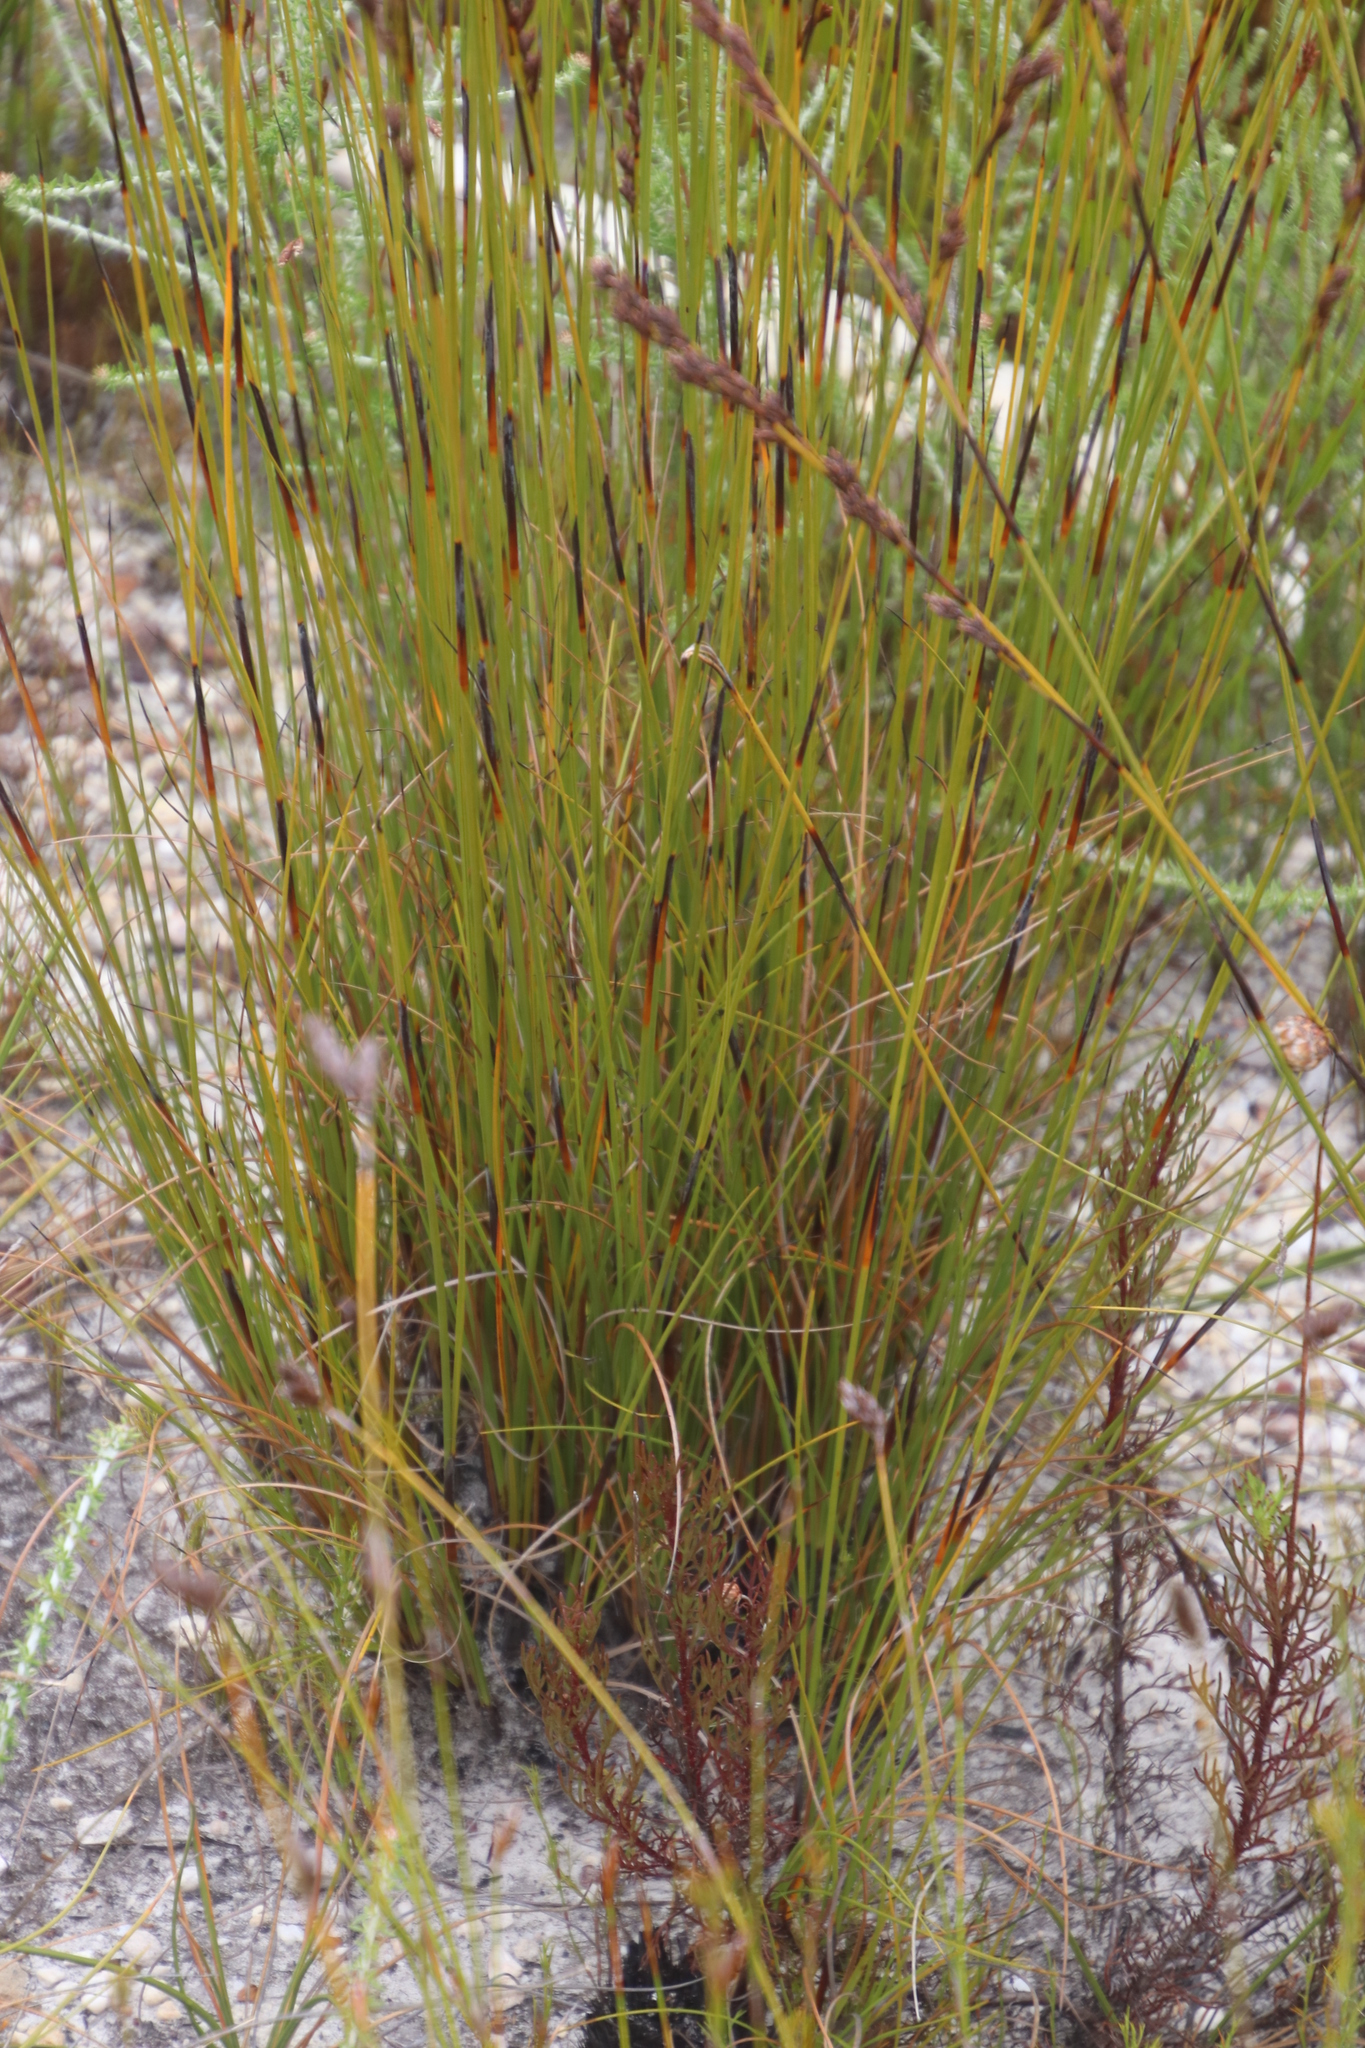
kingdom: Plantae
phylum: Tracheophyta
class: Liliopsida
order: Poales
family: Cyperaceae
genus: Tetraria
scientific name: Tetraria flexuosa
